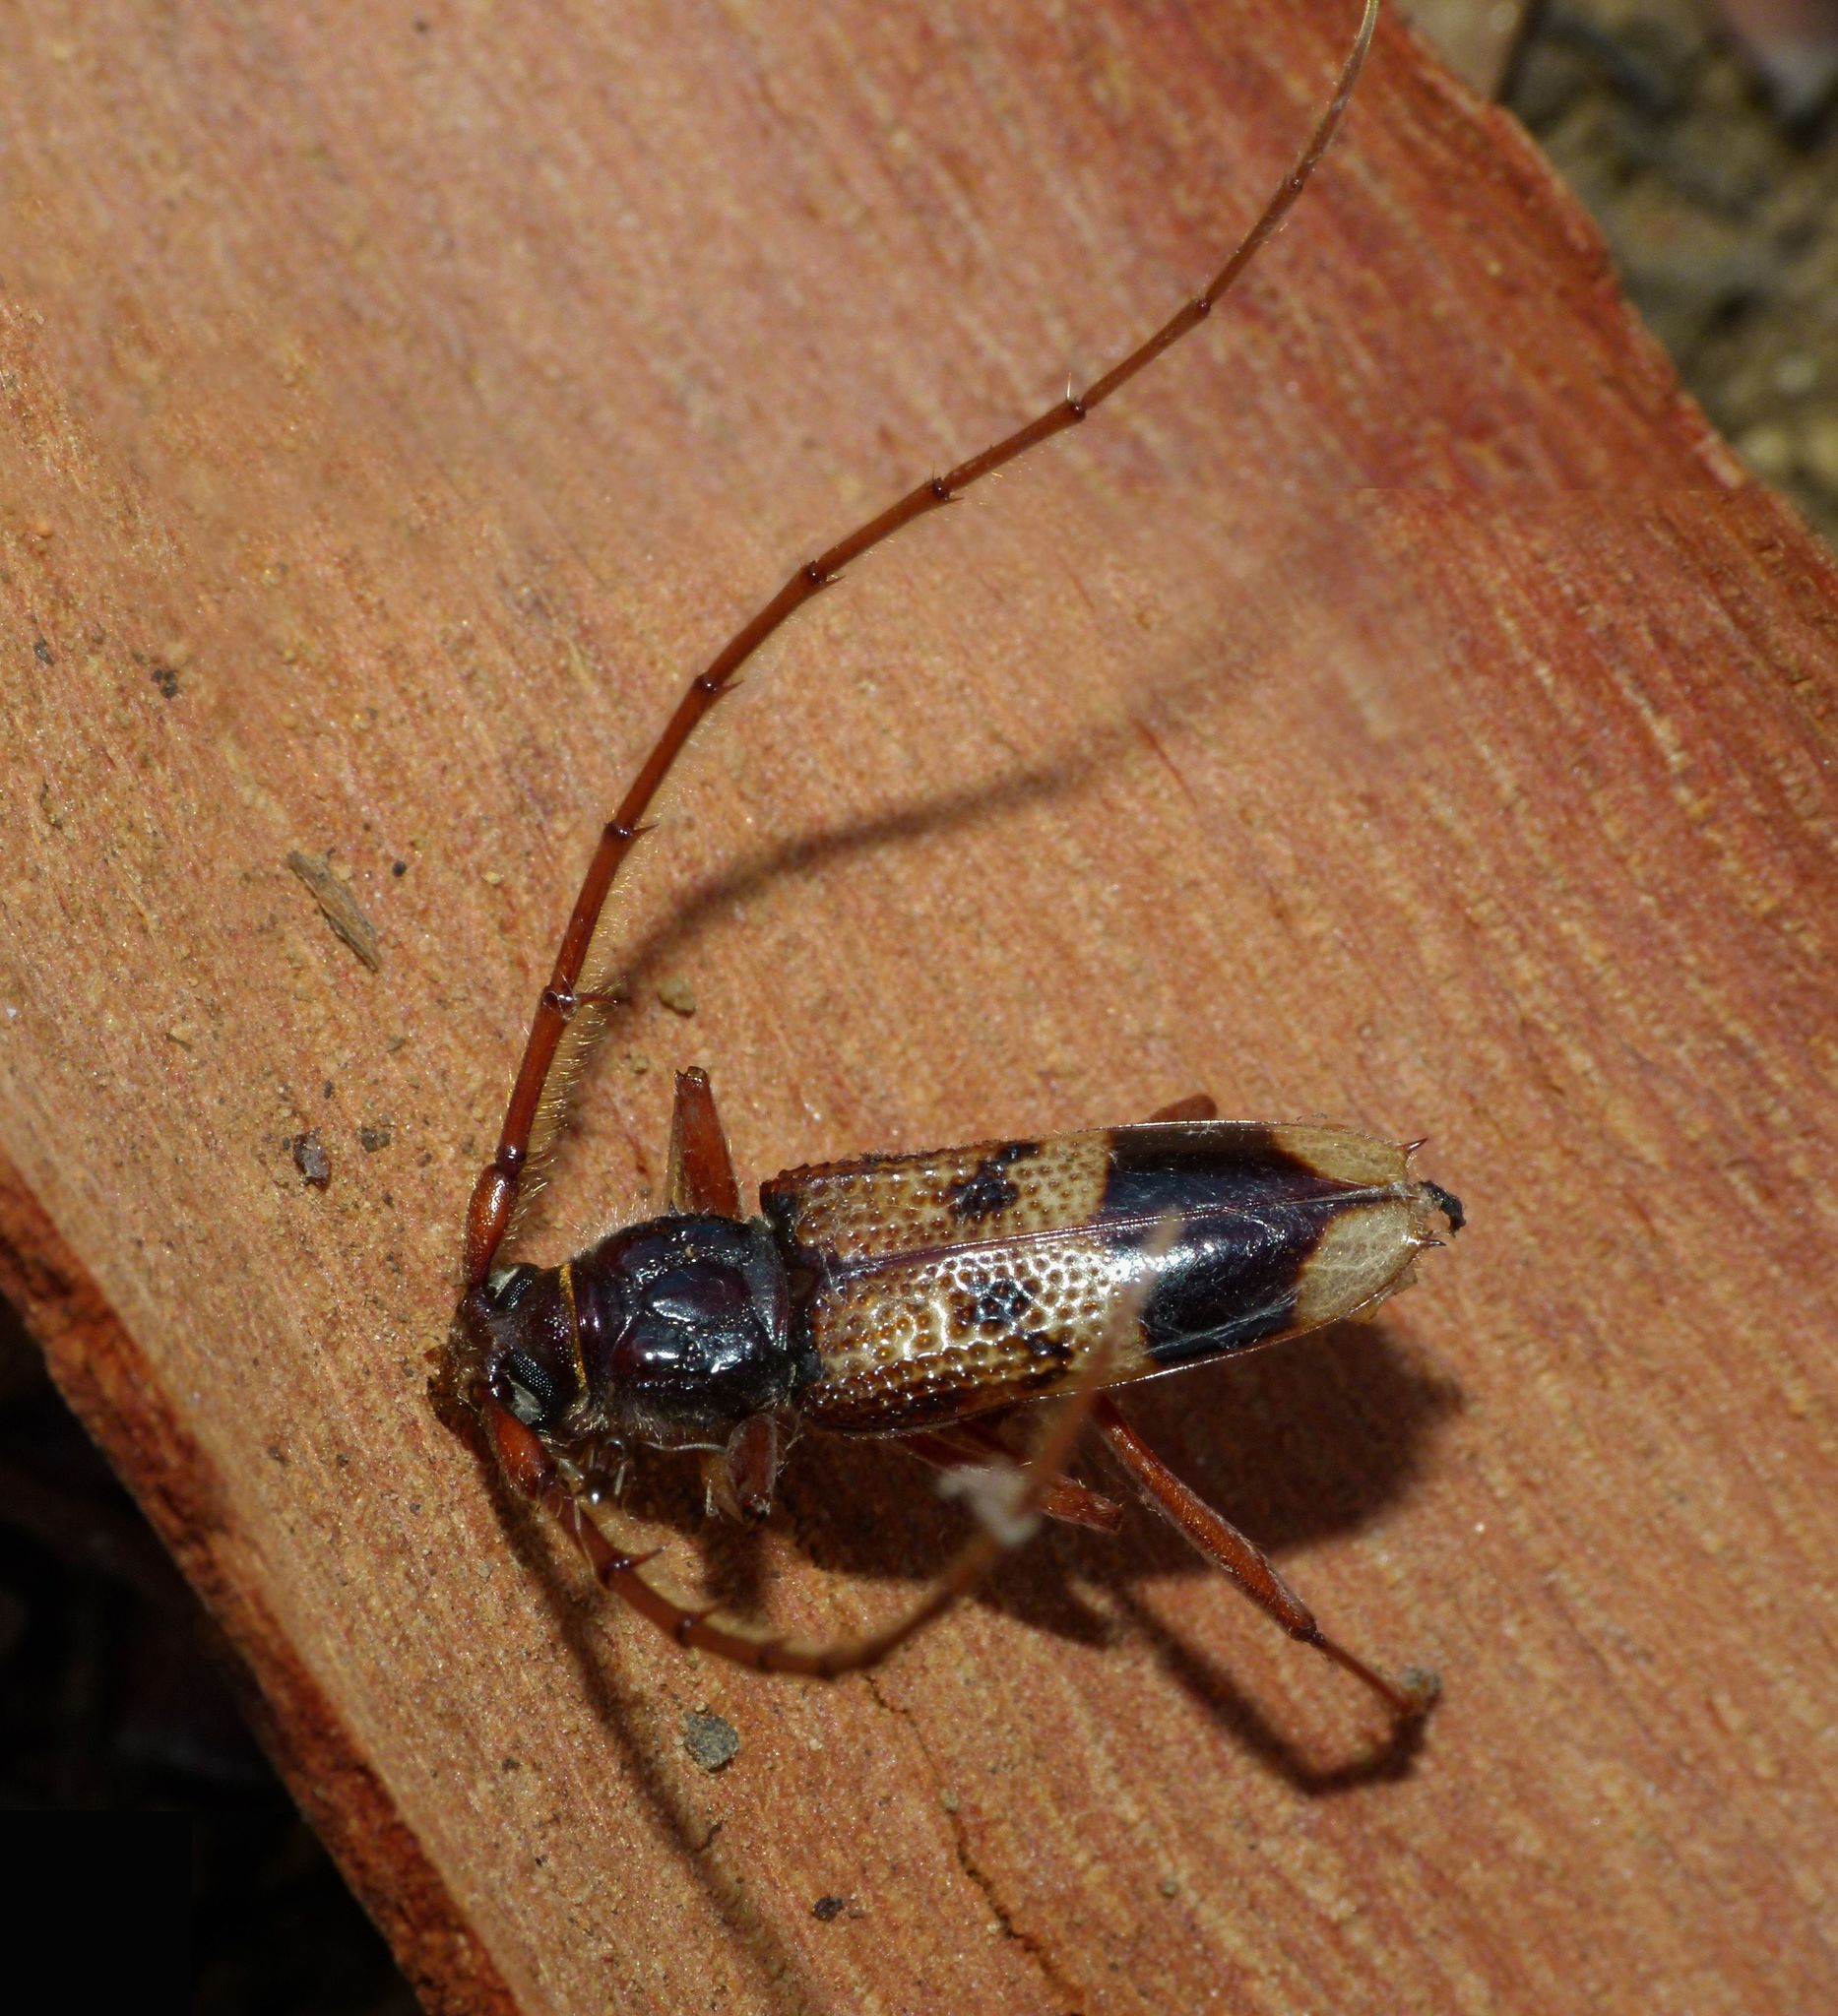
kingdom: Animalia
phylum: Arthropoda
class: Insecta
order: Coleoptera
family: Cerambycidae
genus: Phoracantha
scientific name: Phoracantha recurva
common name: Eucalyptus longhorned borer
